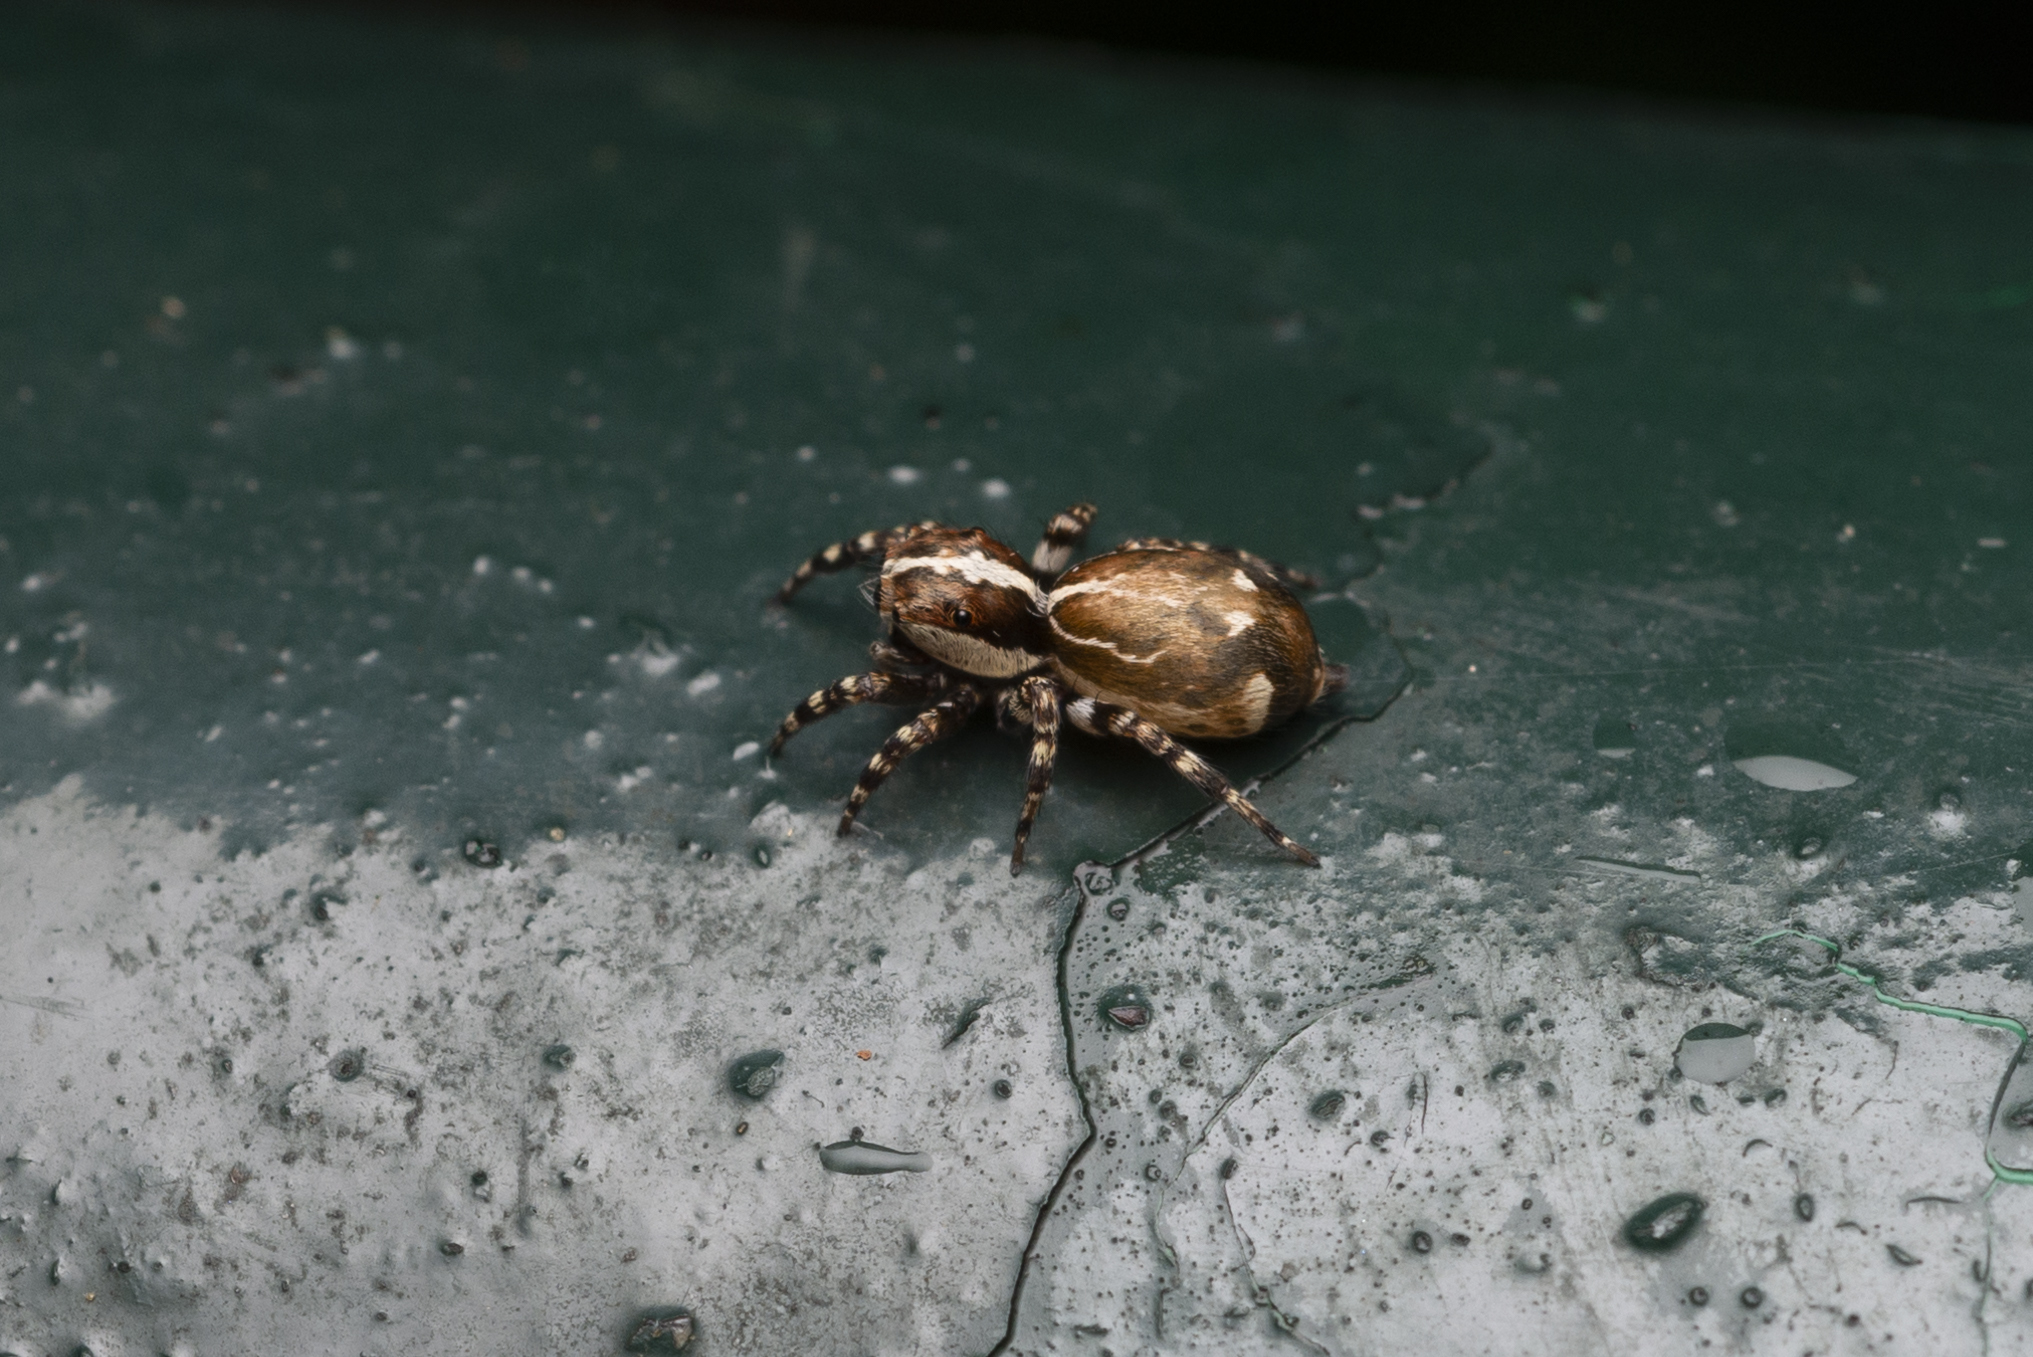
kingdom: Animalia
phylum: Arthropoda
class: Arachnida
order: Araneae
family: Salticidae
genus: Thyene
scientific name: Thyene orientalis
